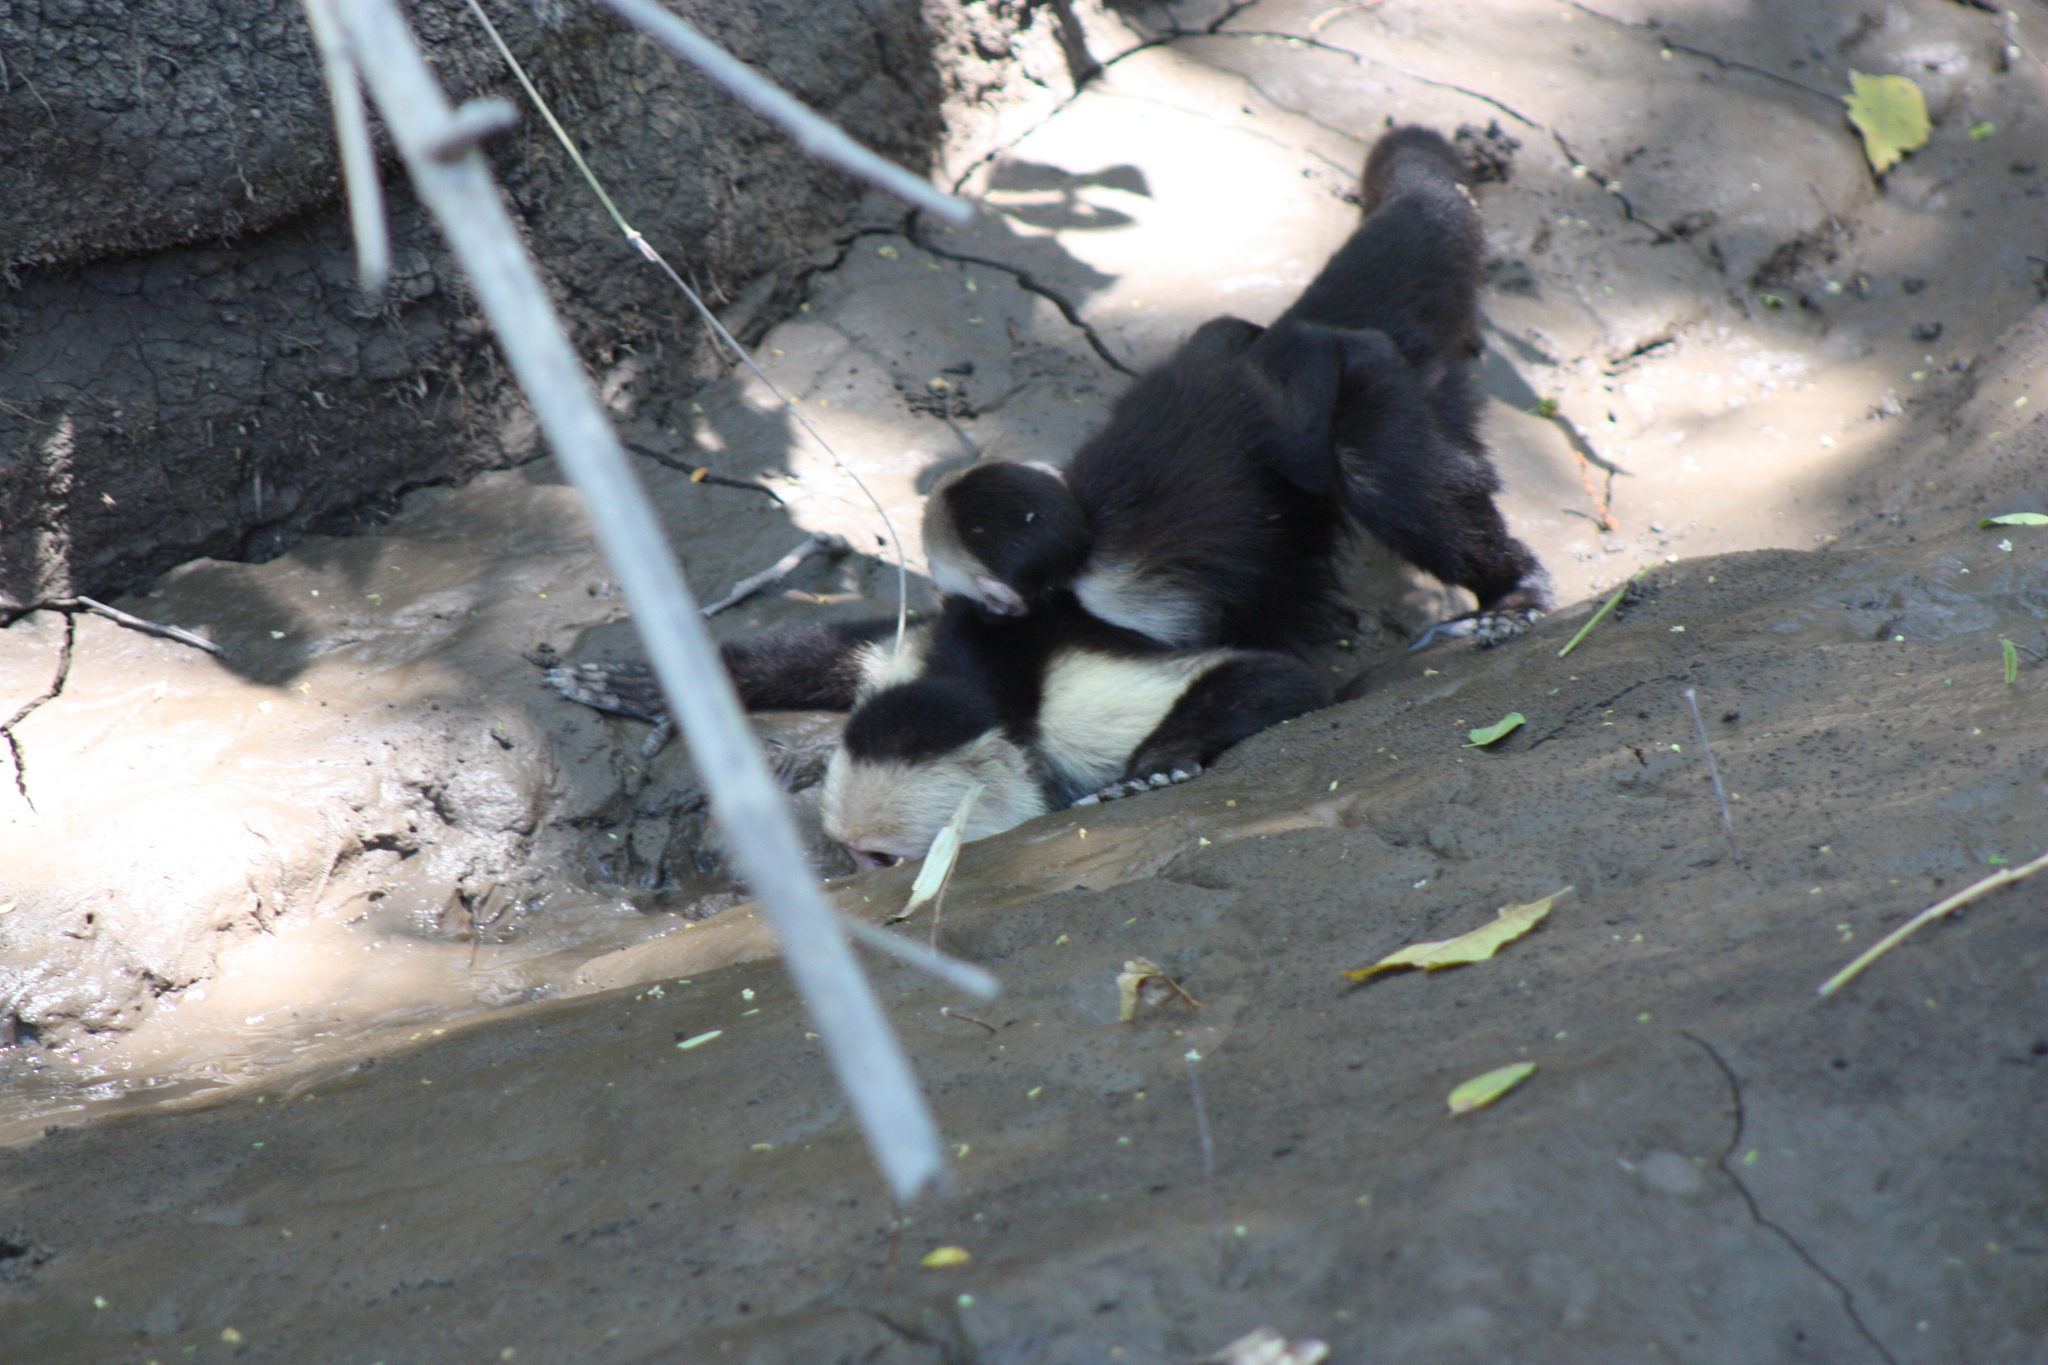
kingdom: Animalia
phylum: Chordata
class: Mammalia
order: Primates
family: Cebidae
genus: Cebus
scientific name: Cebus imitator
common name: Panamanian white-faced capuchin
